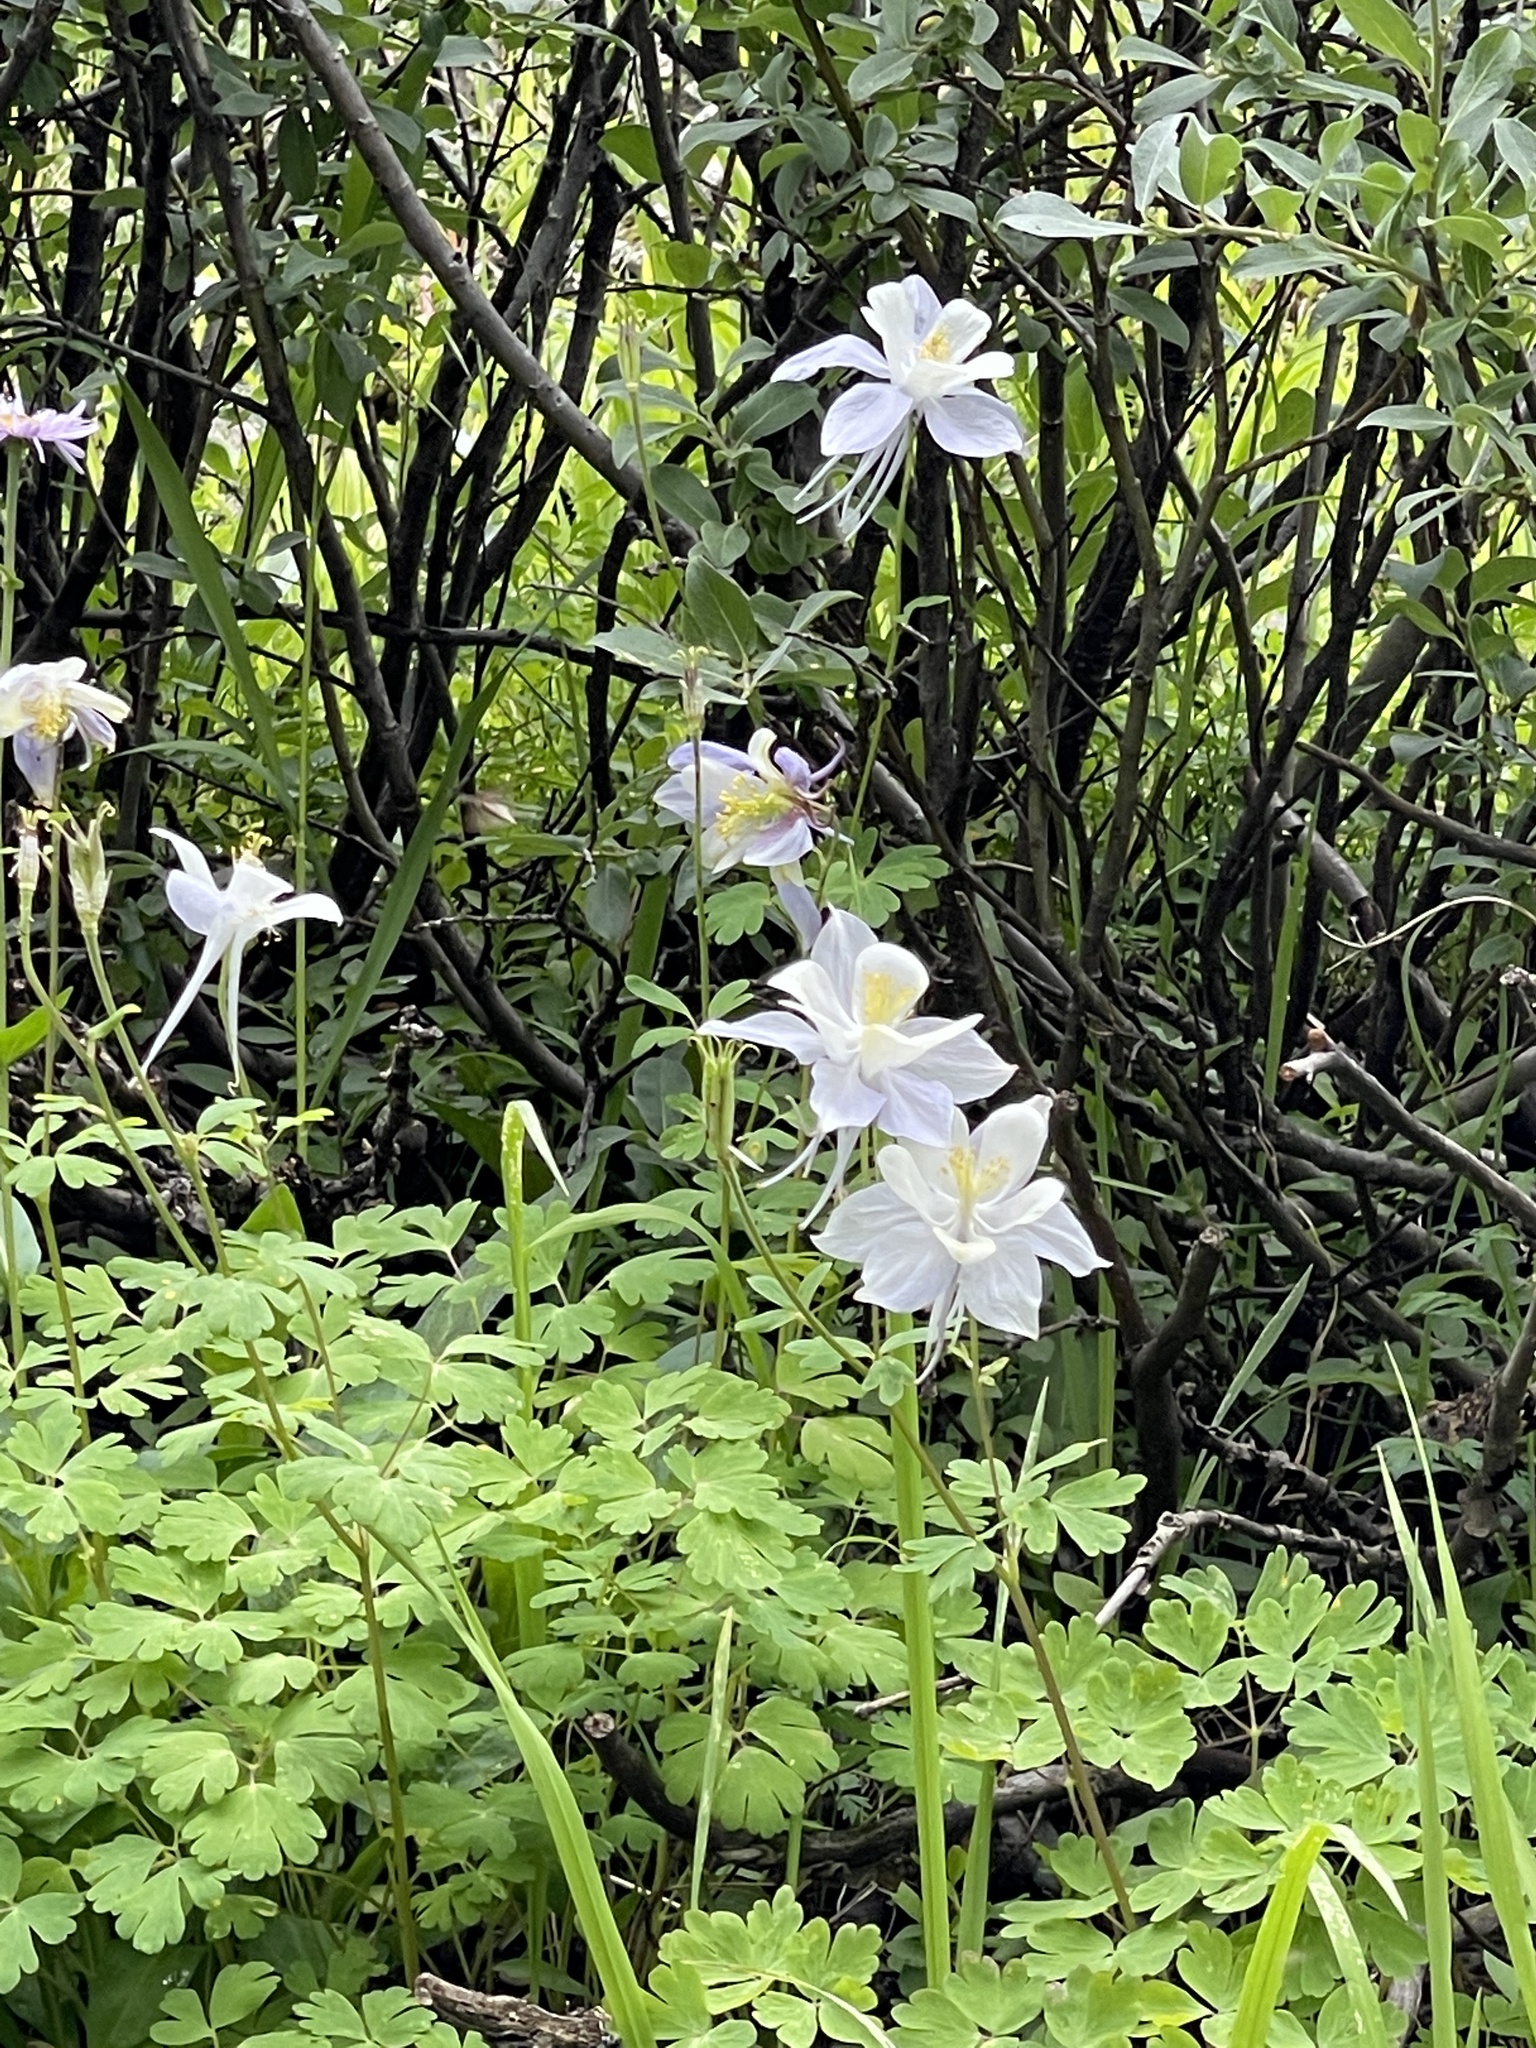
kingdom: Plantae
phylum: Tracheophyta
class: Magnoliopsida
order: Ranunculales
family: Ranunculaceae
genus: Aquilegia
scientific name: Aquilegia coerulea
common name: Rocky mountain columbine
